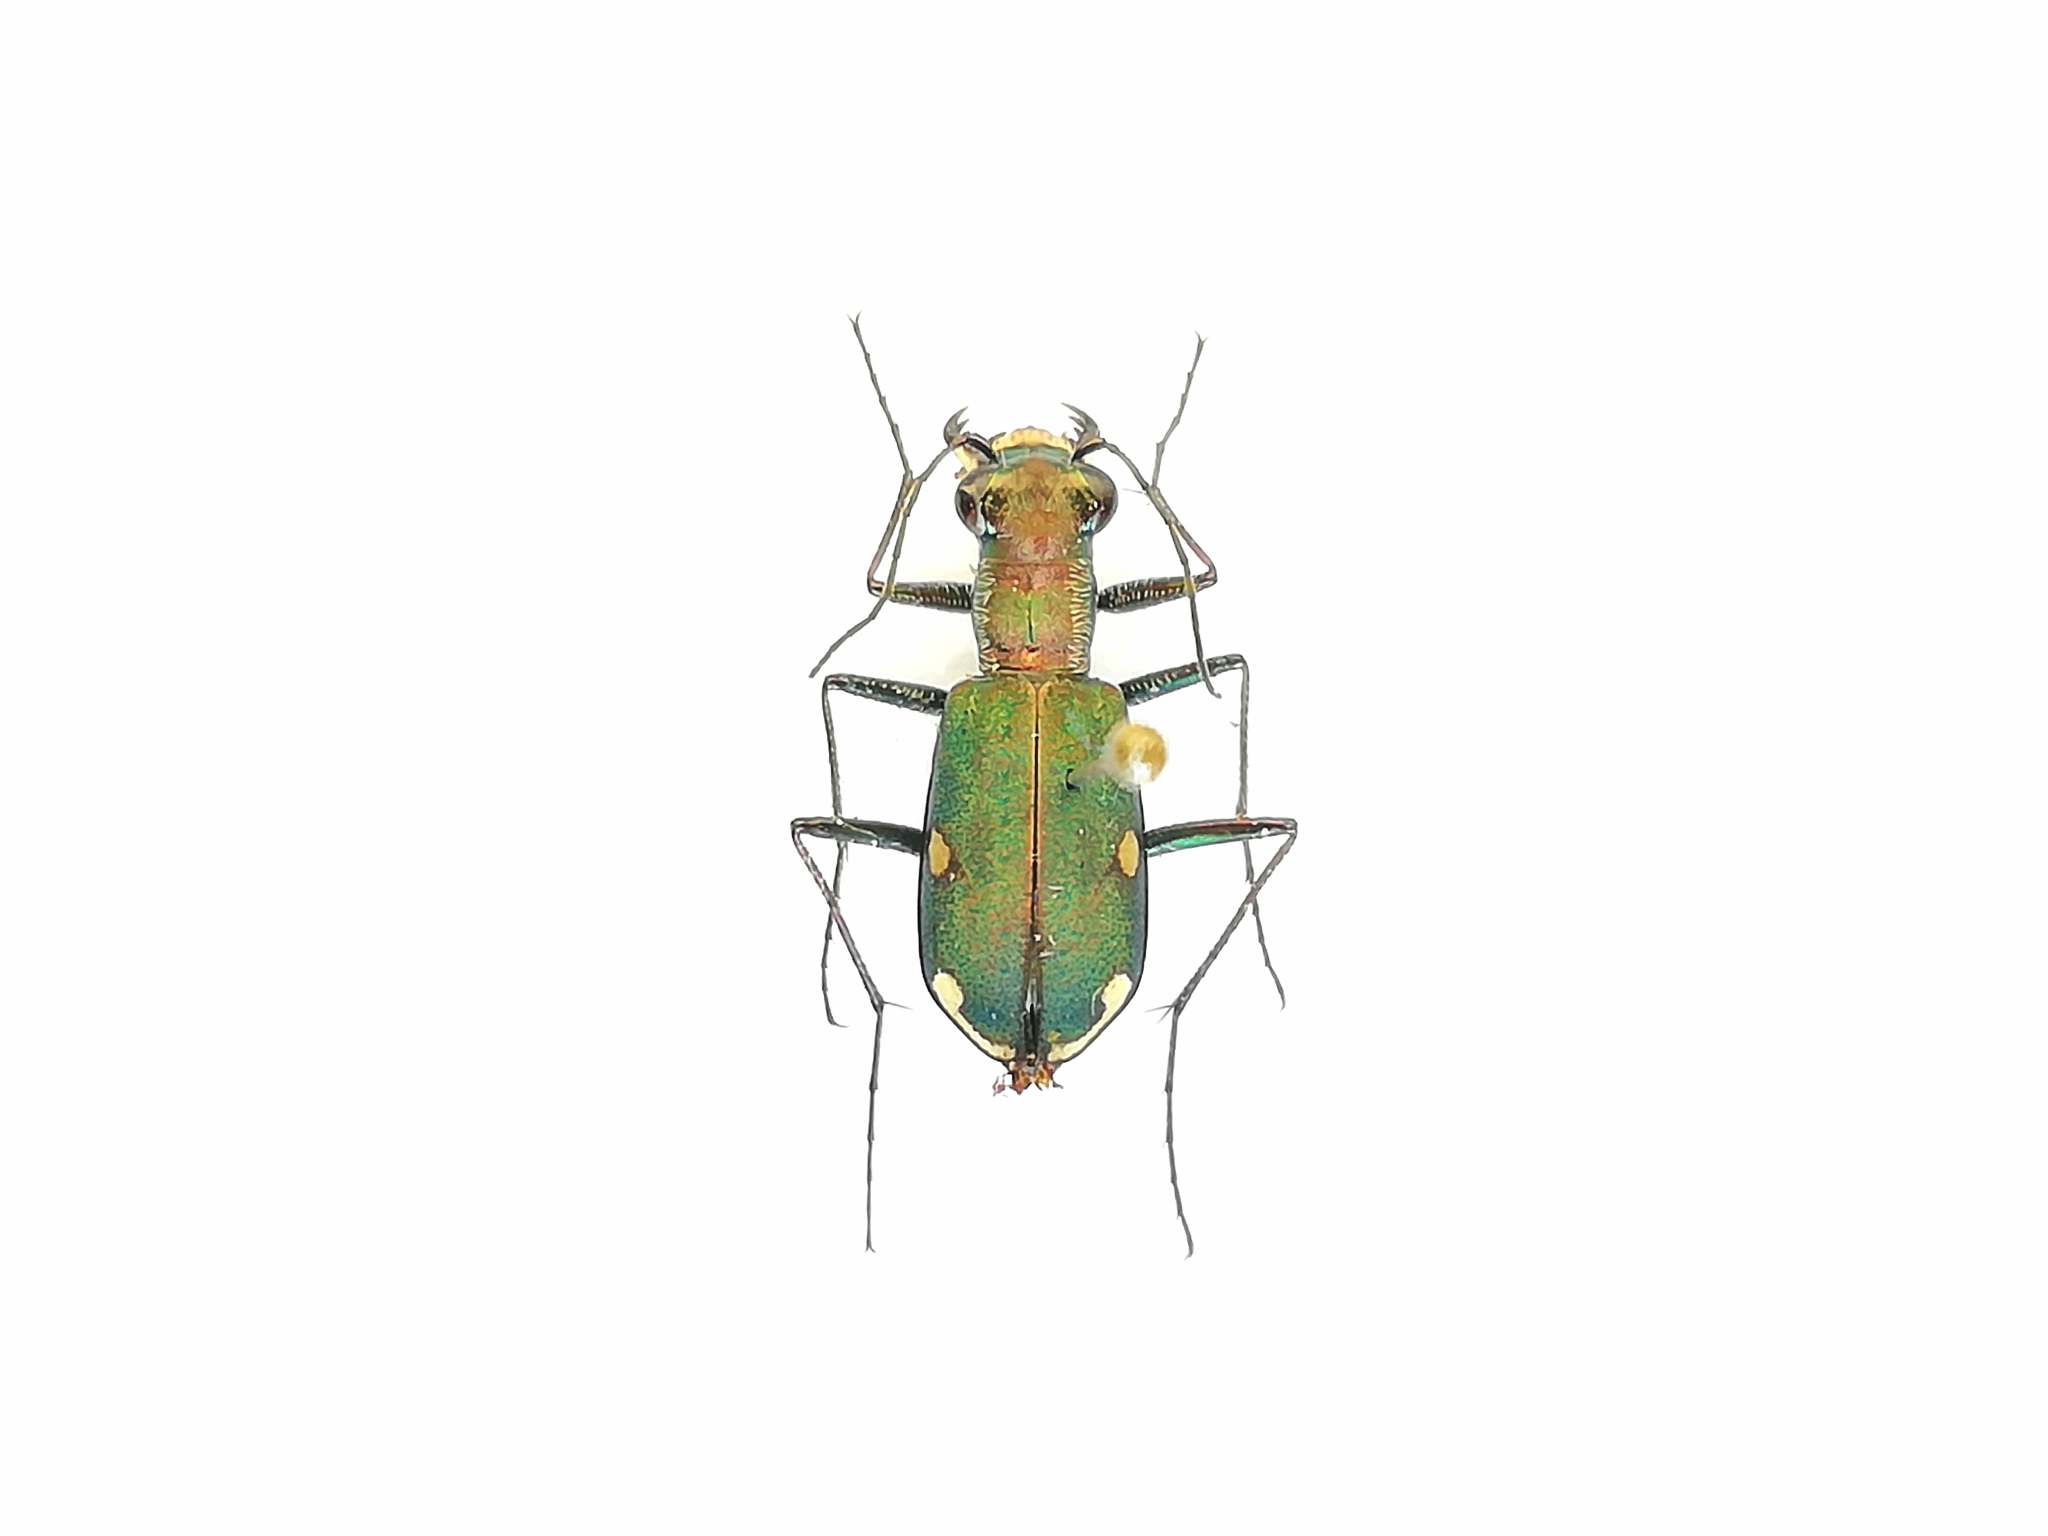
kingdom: Animalia
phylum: Arthropoda
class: Insecta
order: Coleoptera
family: Carabidae
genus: Cylindera
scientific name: Cylindera germanica
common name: Cliff tiger beetle
